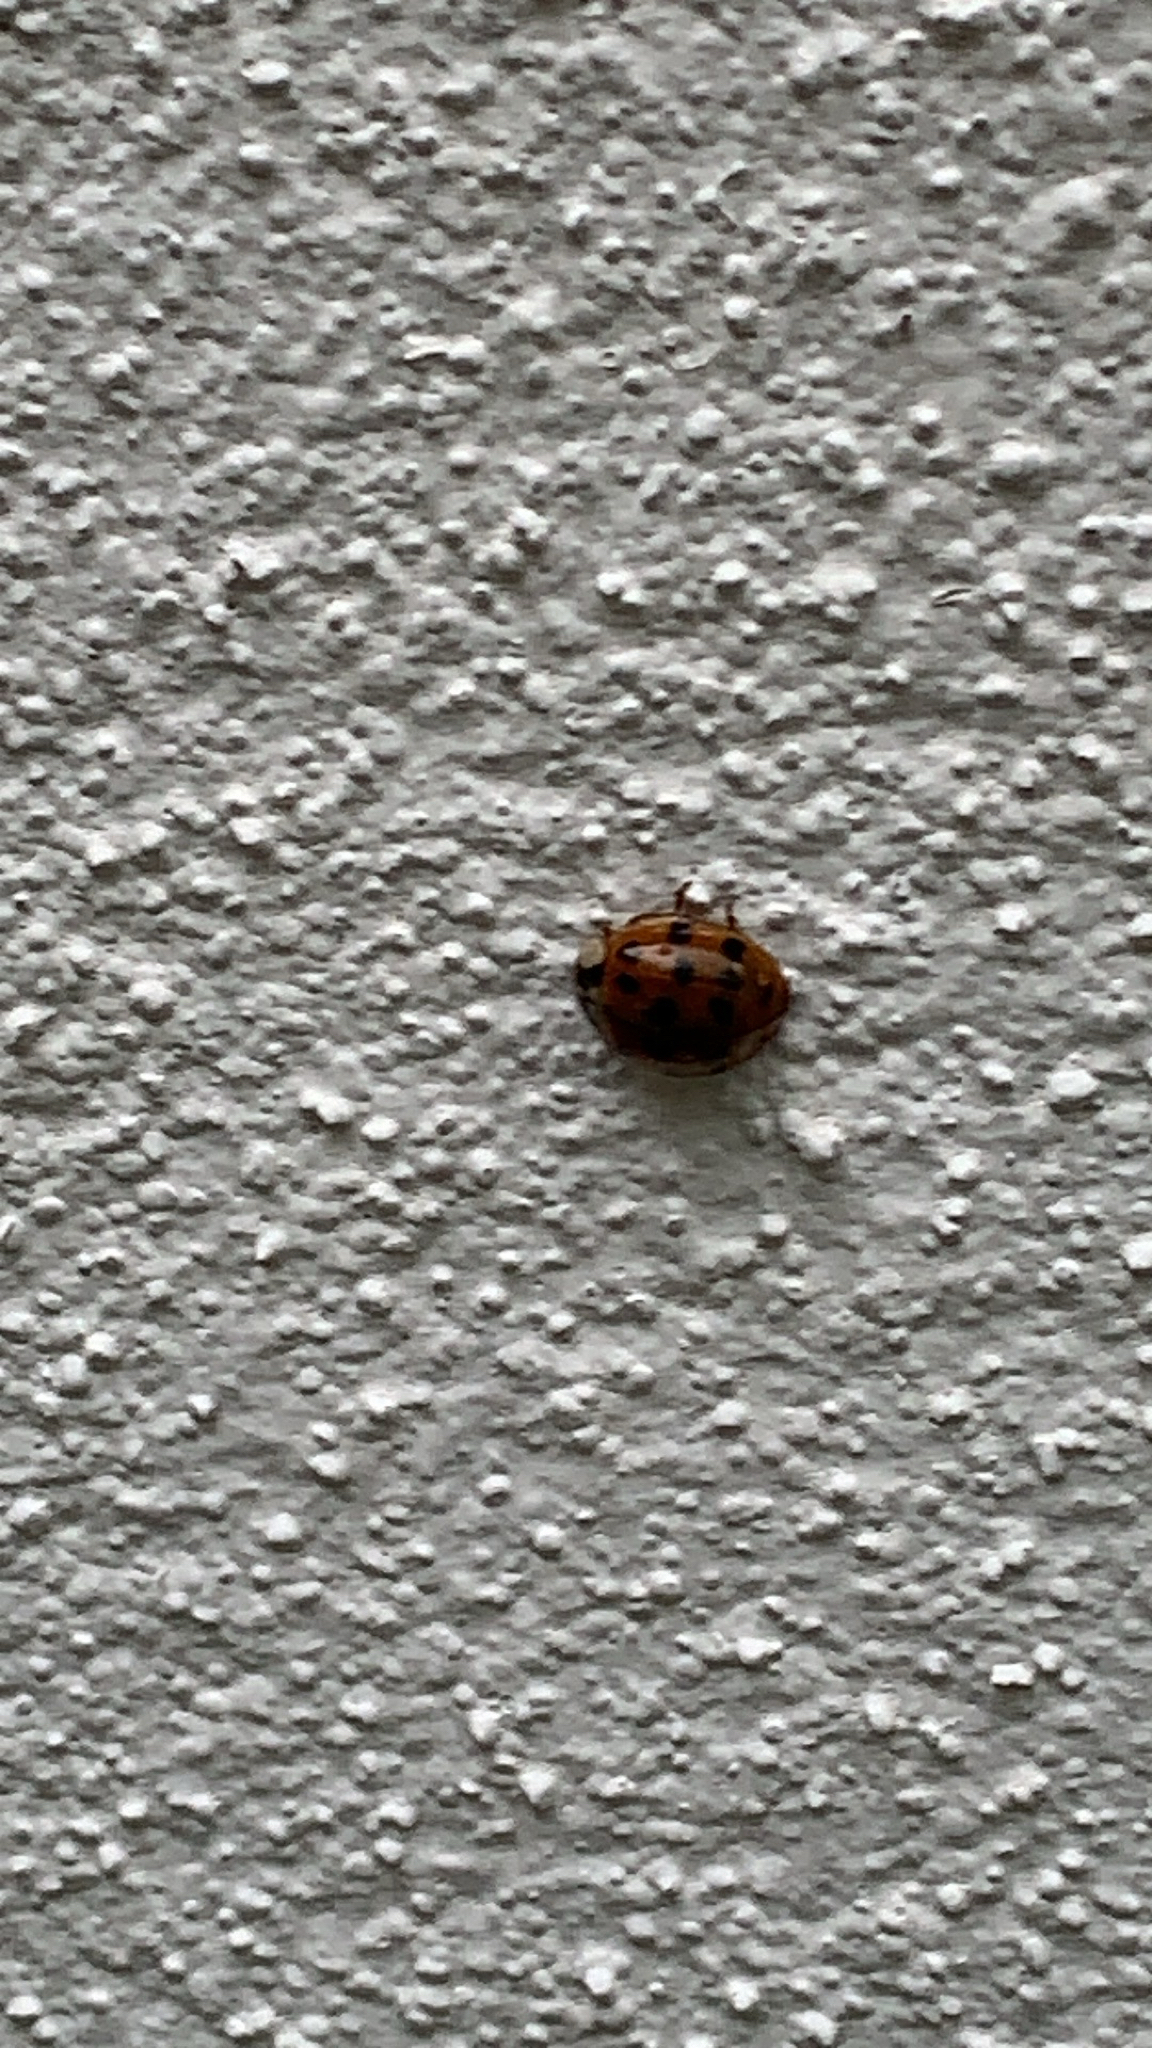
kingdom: Animalia
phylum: Arthropoda
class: Insecta
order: Coleoptera
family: Coccinellidae
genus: Harmonia
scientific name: Harmonia axyridis
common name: Harlequin ladybird
